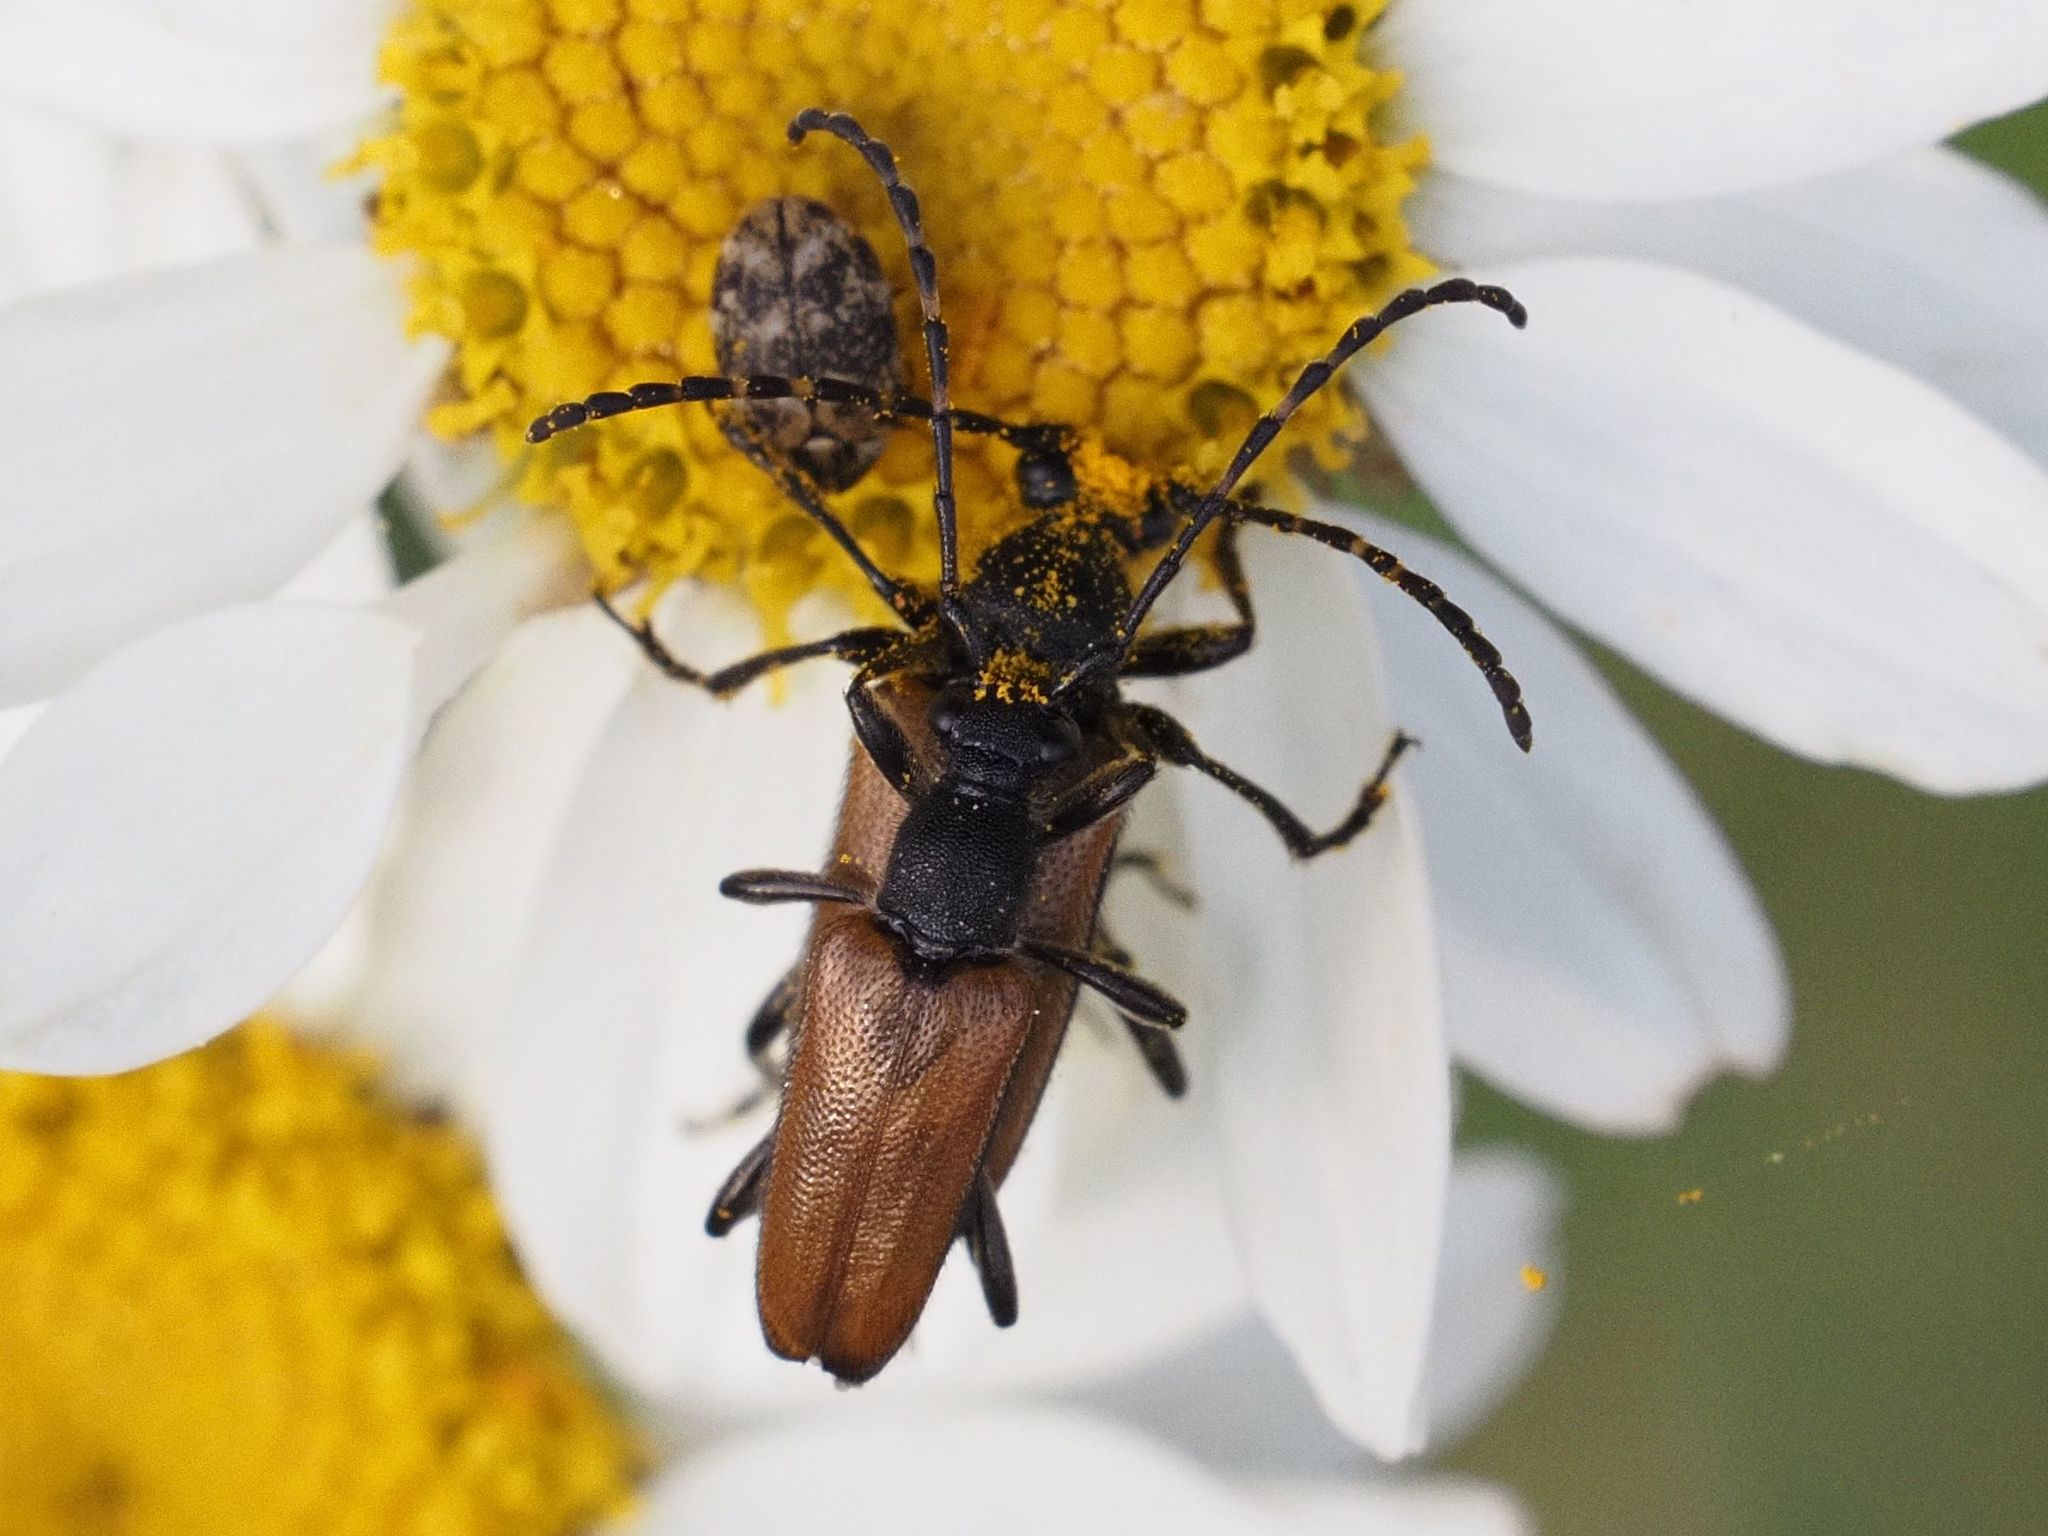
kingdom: Animalia
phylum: Arthropoda
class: Insecta
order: Coleoptera
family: Cerambycidae
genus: Pseudovadonia
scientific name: Pseudovadonia livida
